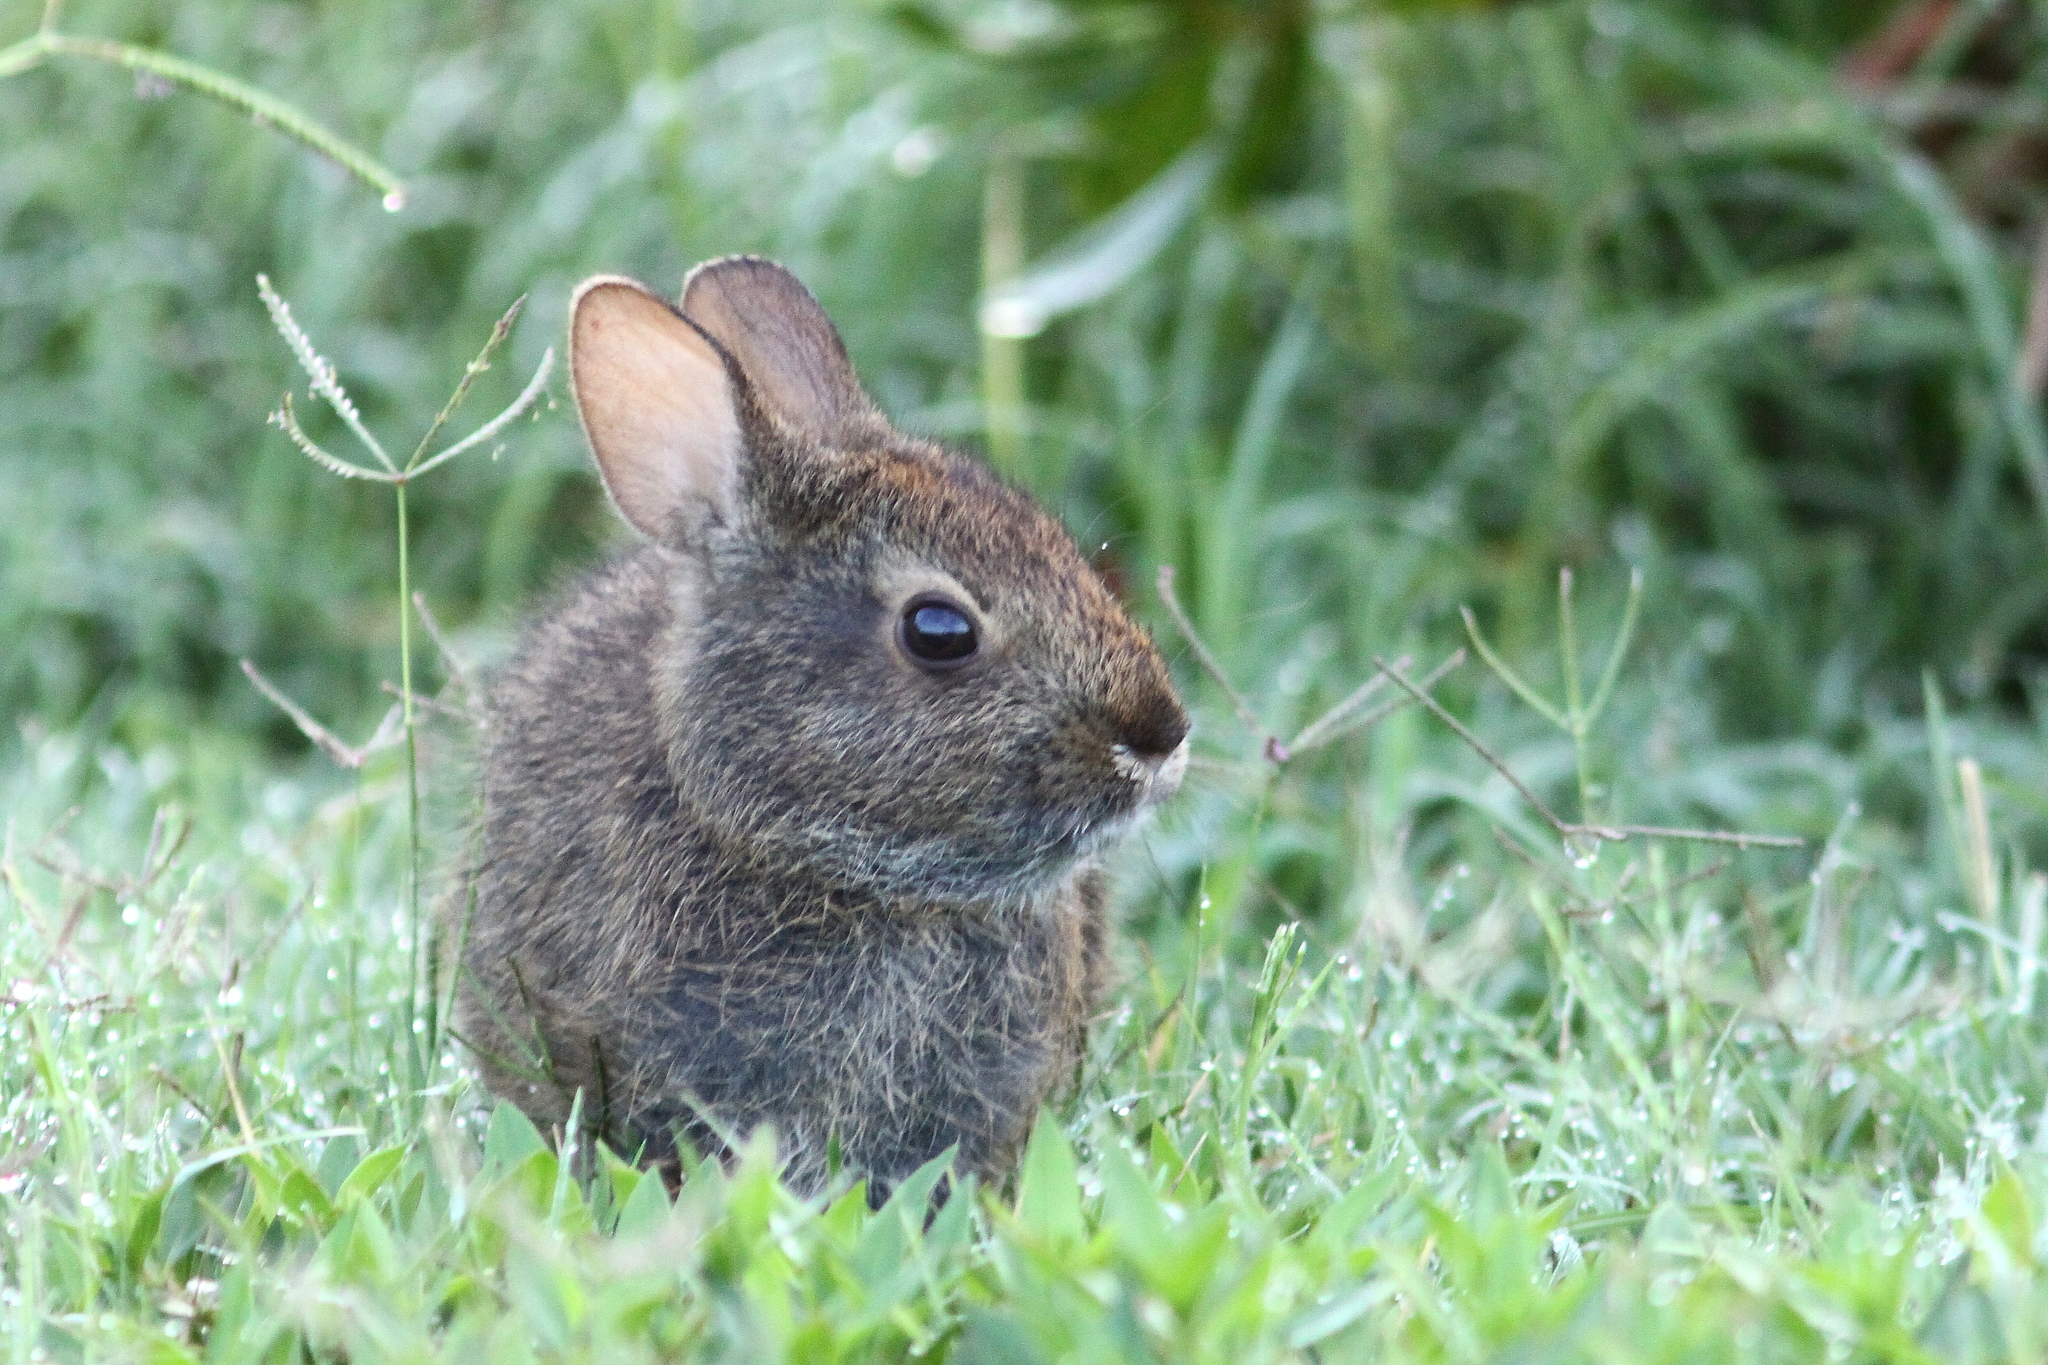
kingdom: Animalia
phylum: Chordata
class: Mammalia
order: Lagomorpha
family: Leporidae
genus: Sylvilagus
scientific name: Sylvilagus palustris
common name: Marsh rabbit
